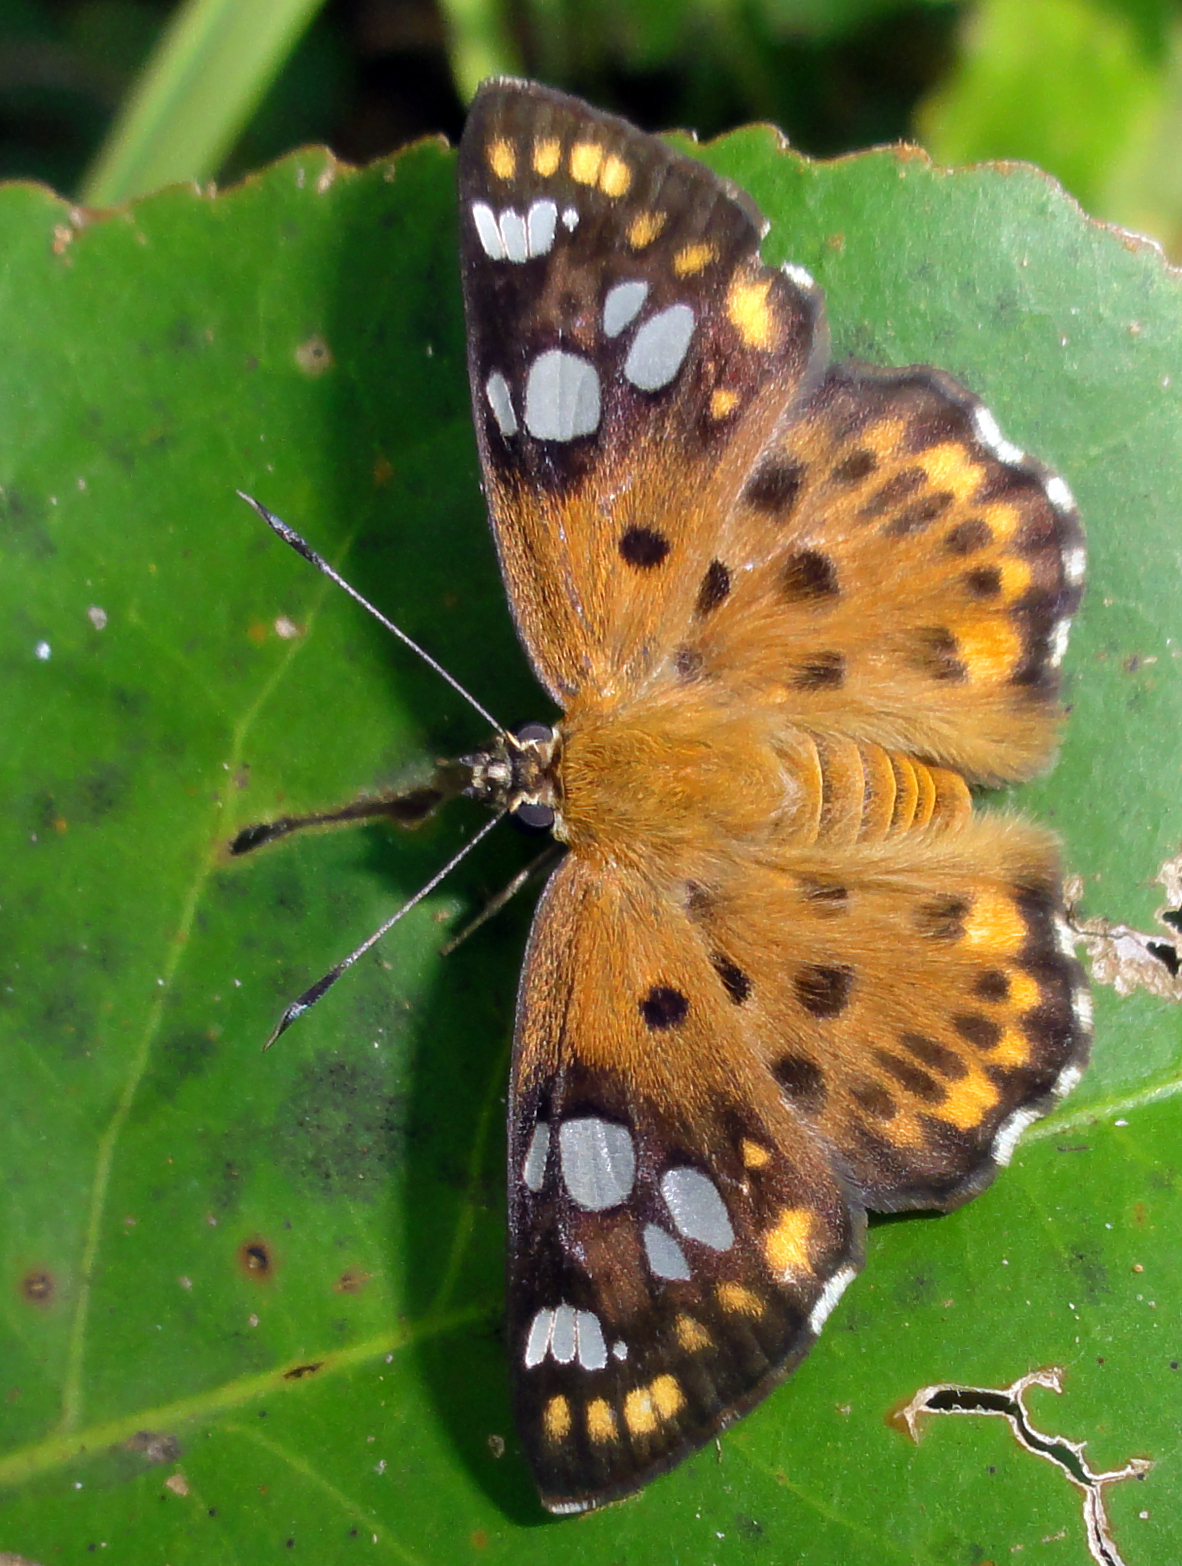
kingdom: Animalia
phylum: Arthropoda
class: Insecta
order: Lepidoptera
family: Hesperiidae
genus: Coladenia
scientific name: Coladenia
